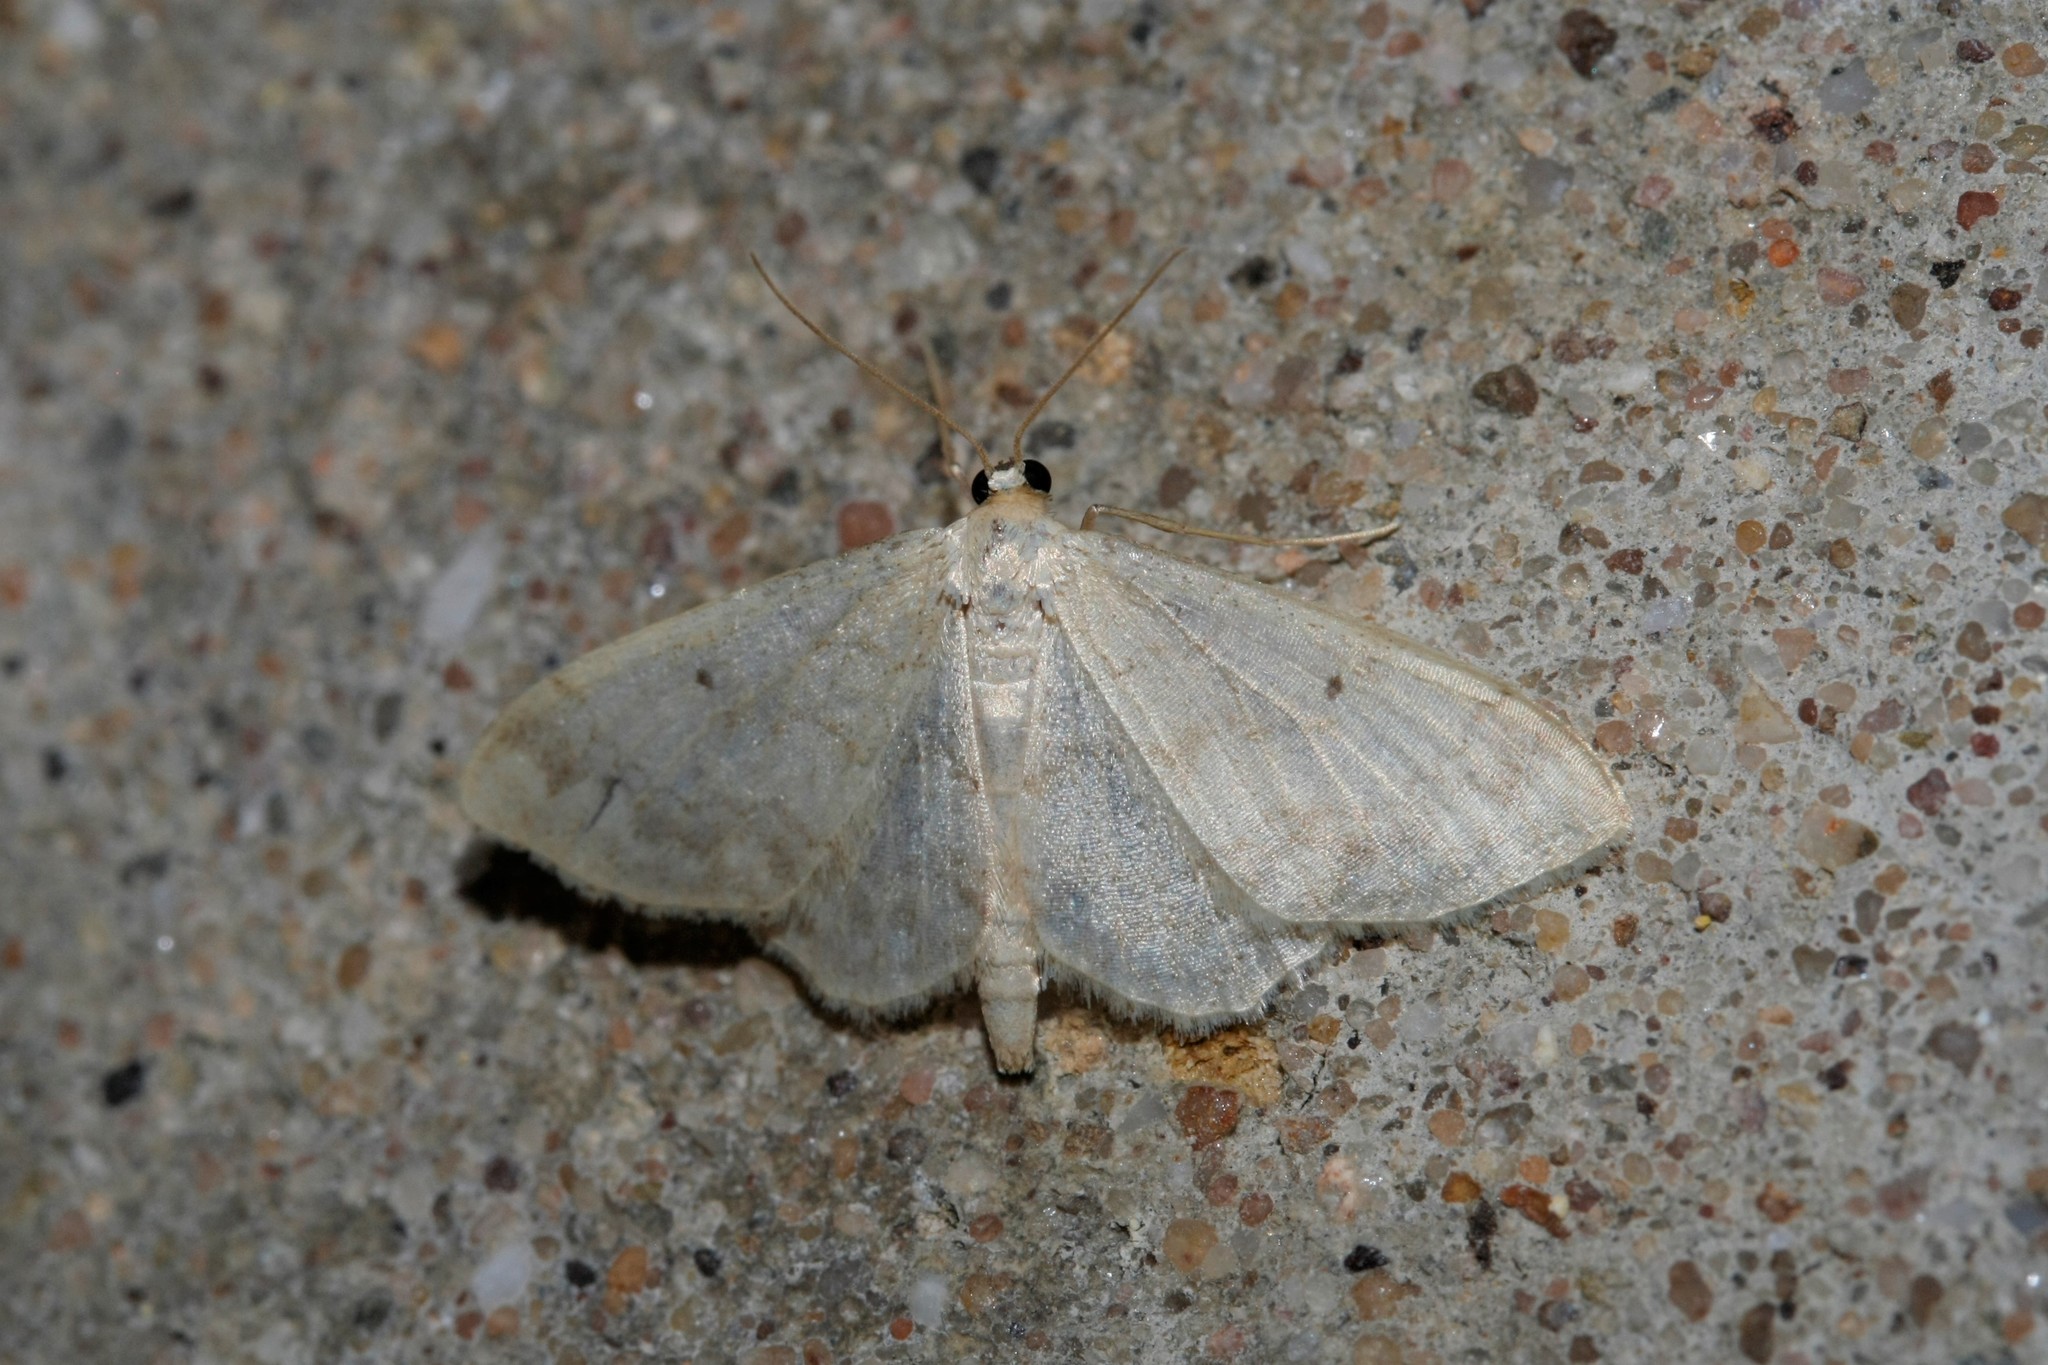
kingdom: Animalia
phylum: Arthropoda
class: Insecta
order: Lepidoptera
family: Geometridae
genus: Idaea
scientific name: Idaea biselata
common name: Small fan-footed wave
